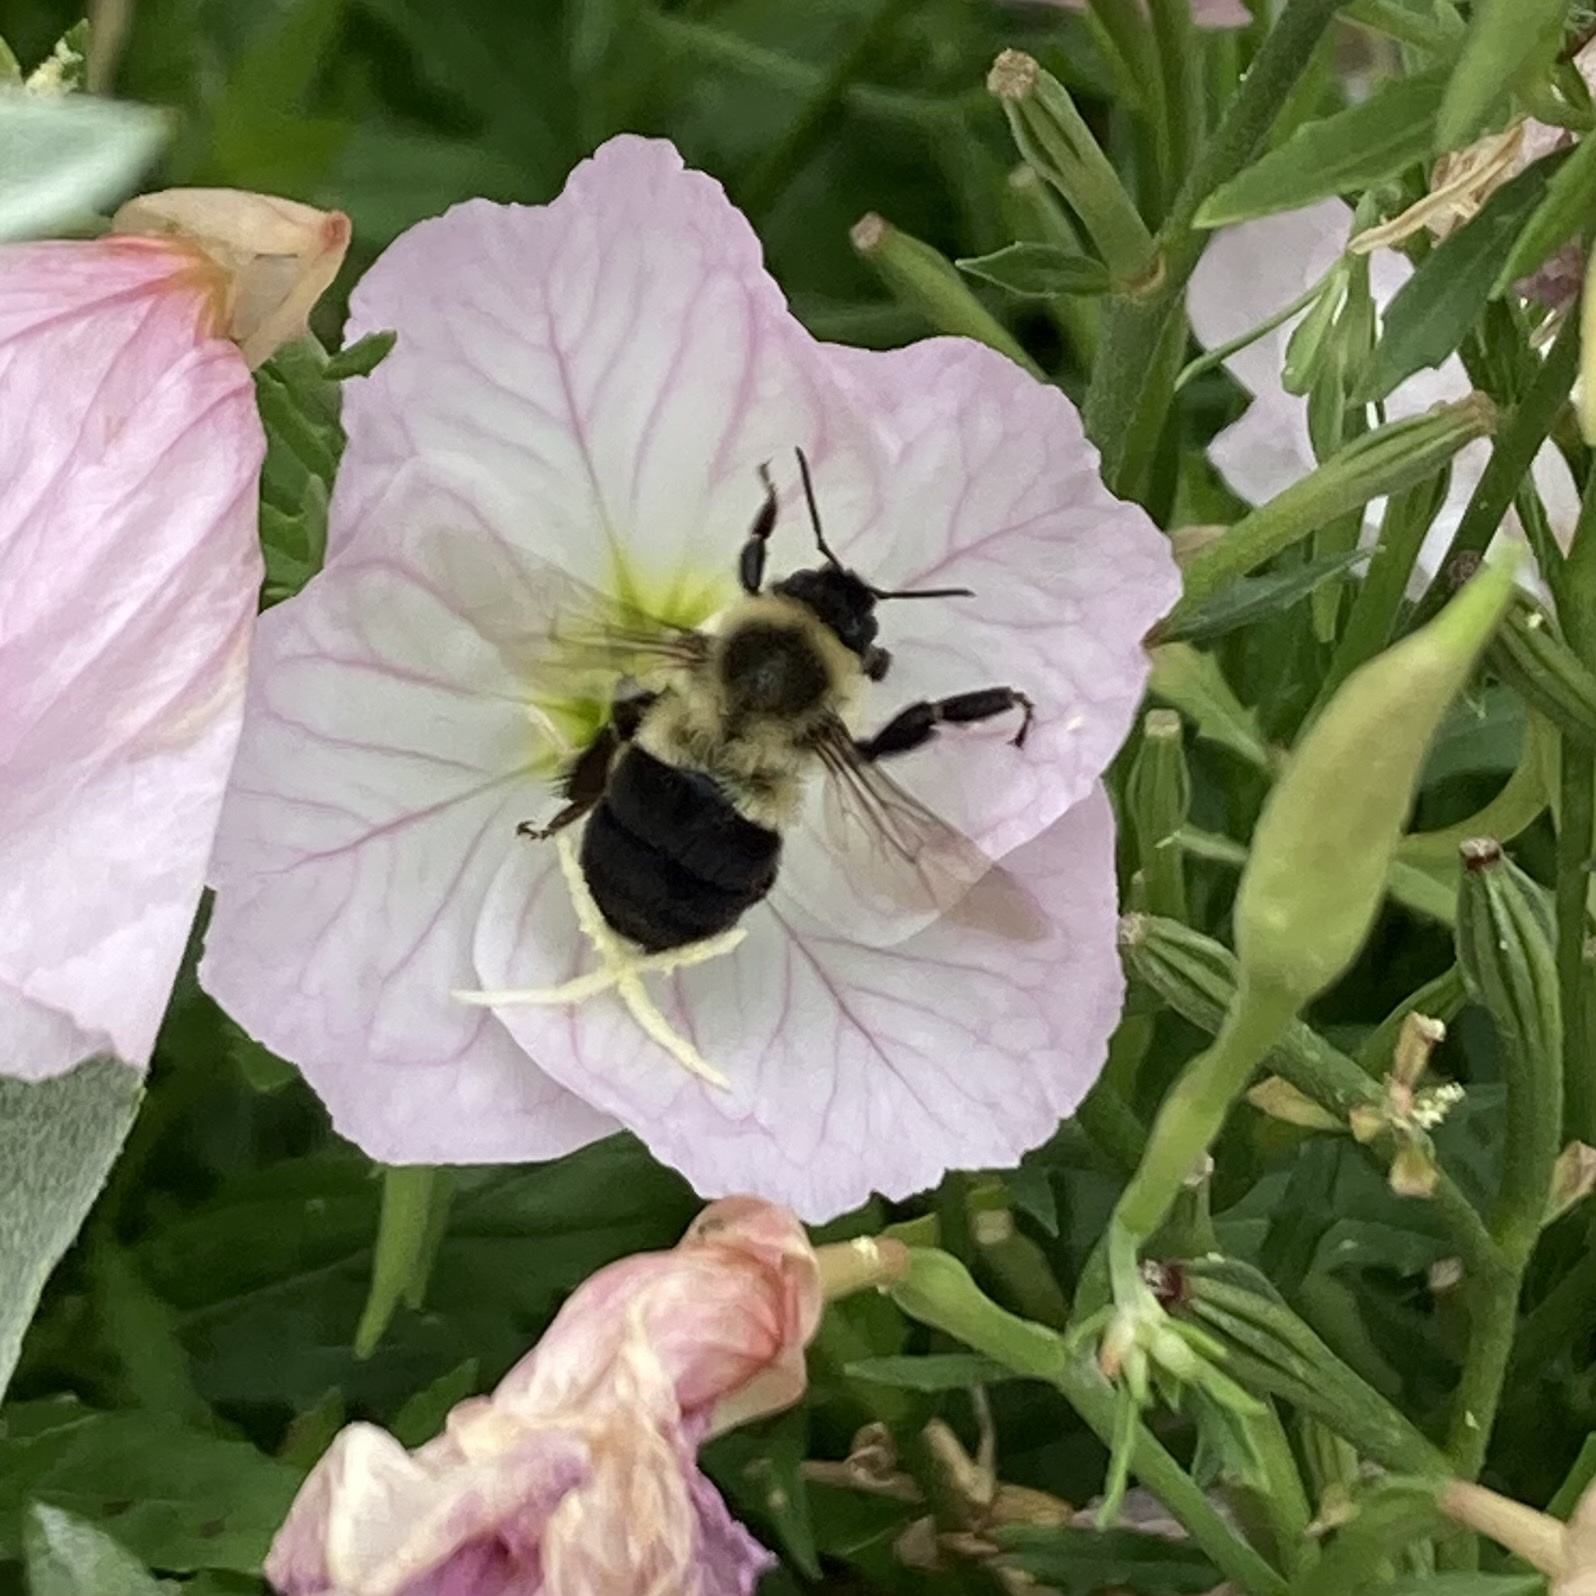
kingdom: Animalia
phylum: Arthropoda
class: Insecta
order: Hymenoptera
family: Apidae
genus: Bombus
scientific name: Bombus impatiens
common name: Common eastern bumble bee
